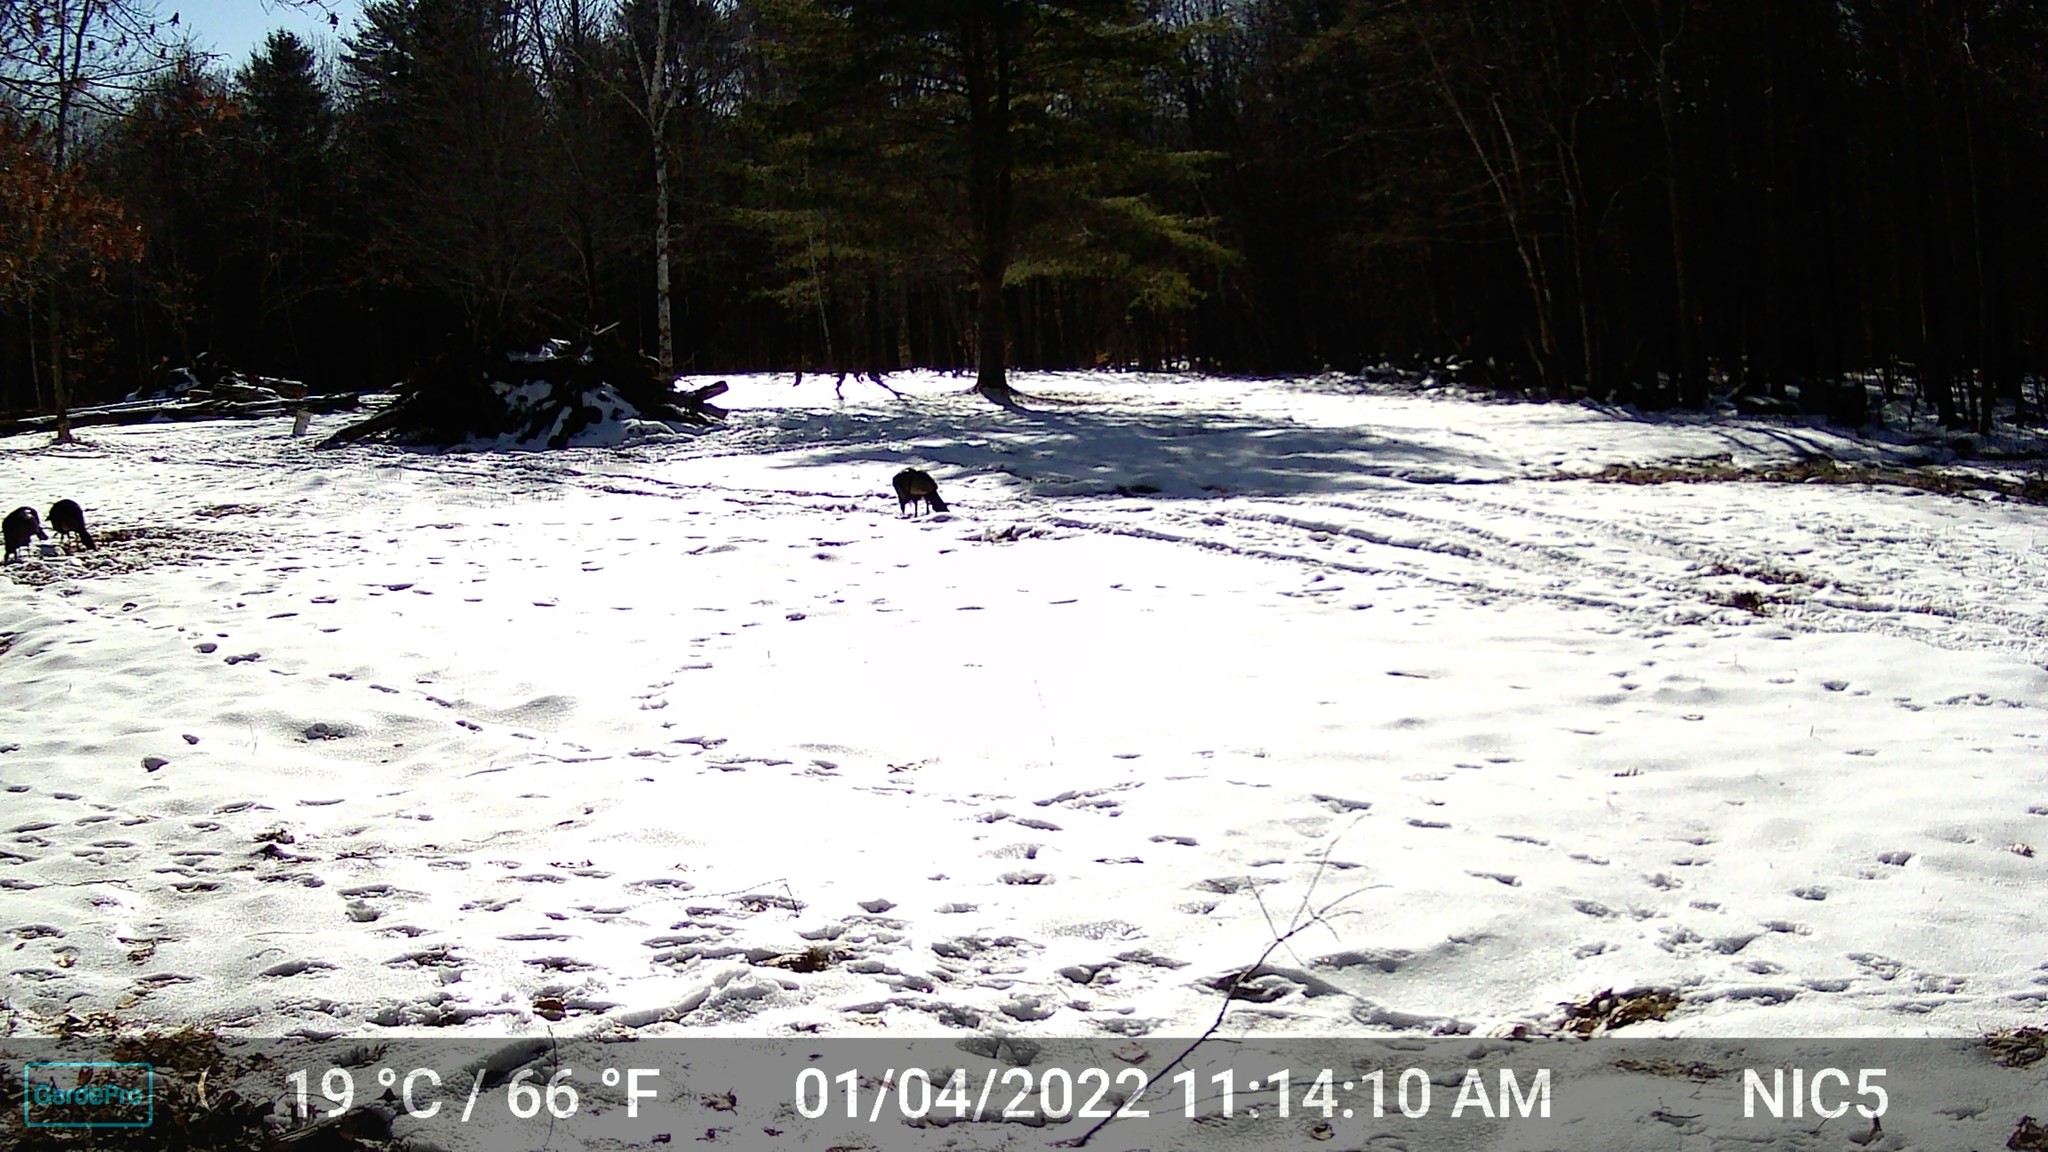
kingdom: Animalia
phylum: Chordata
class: Aves
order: Galliformes
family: Phasianidae
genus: Meleagris
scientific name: Meleagris gallopavo
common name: Wild turkey
